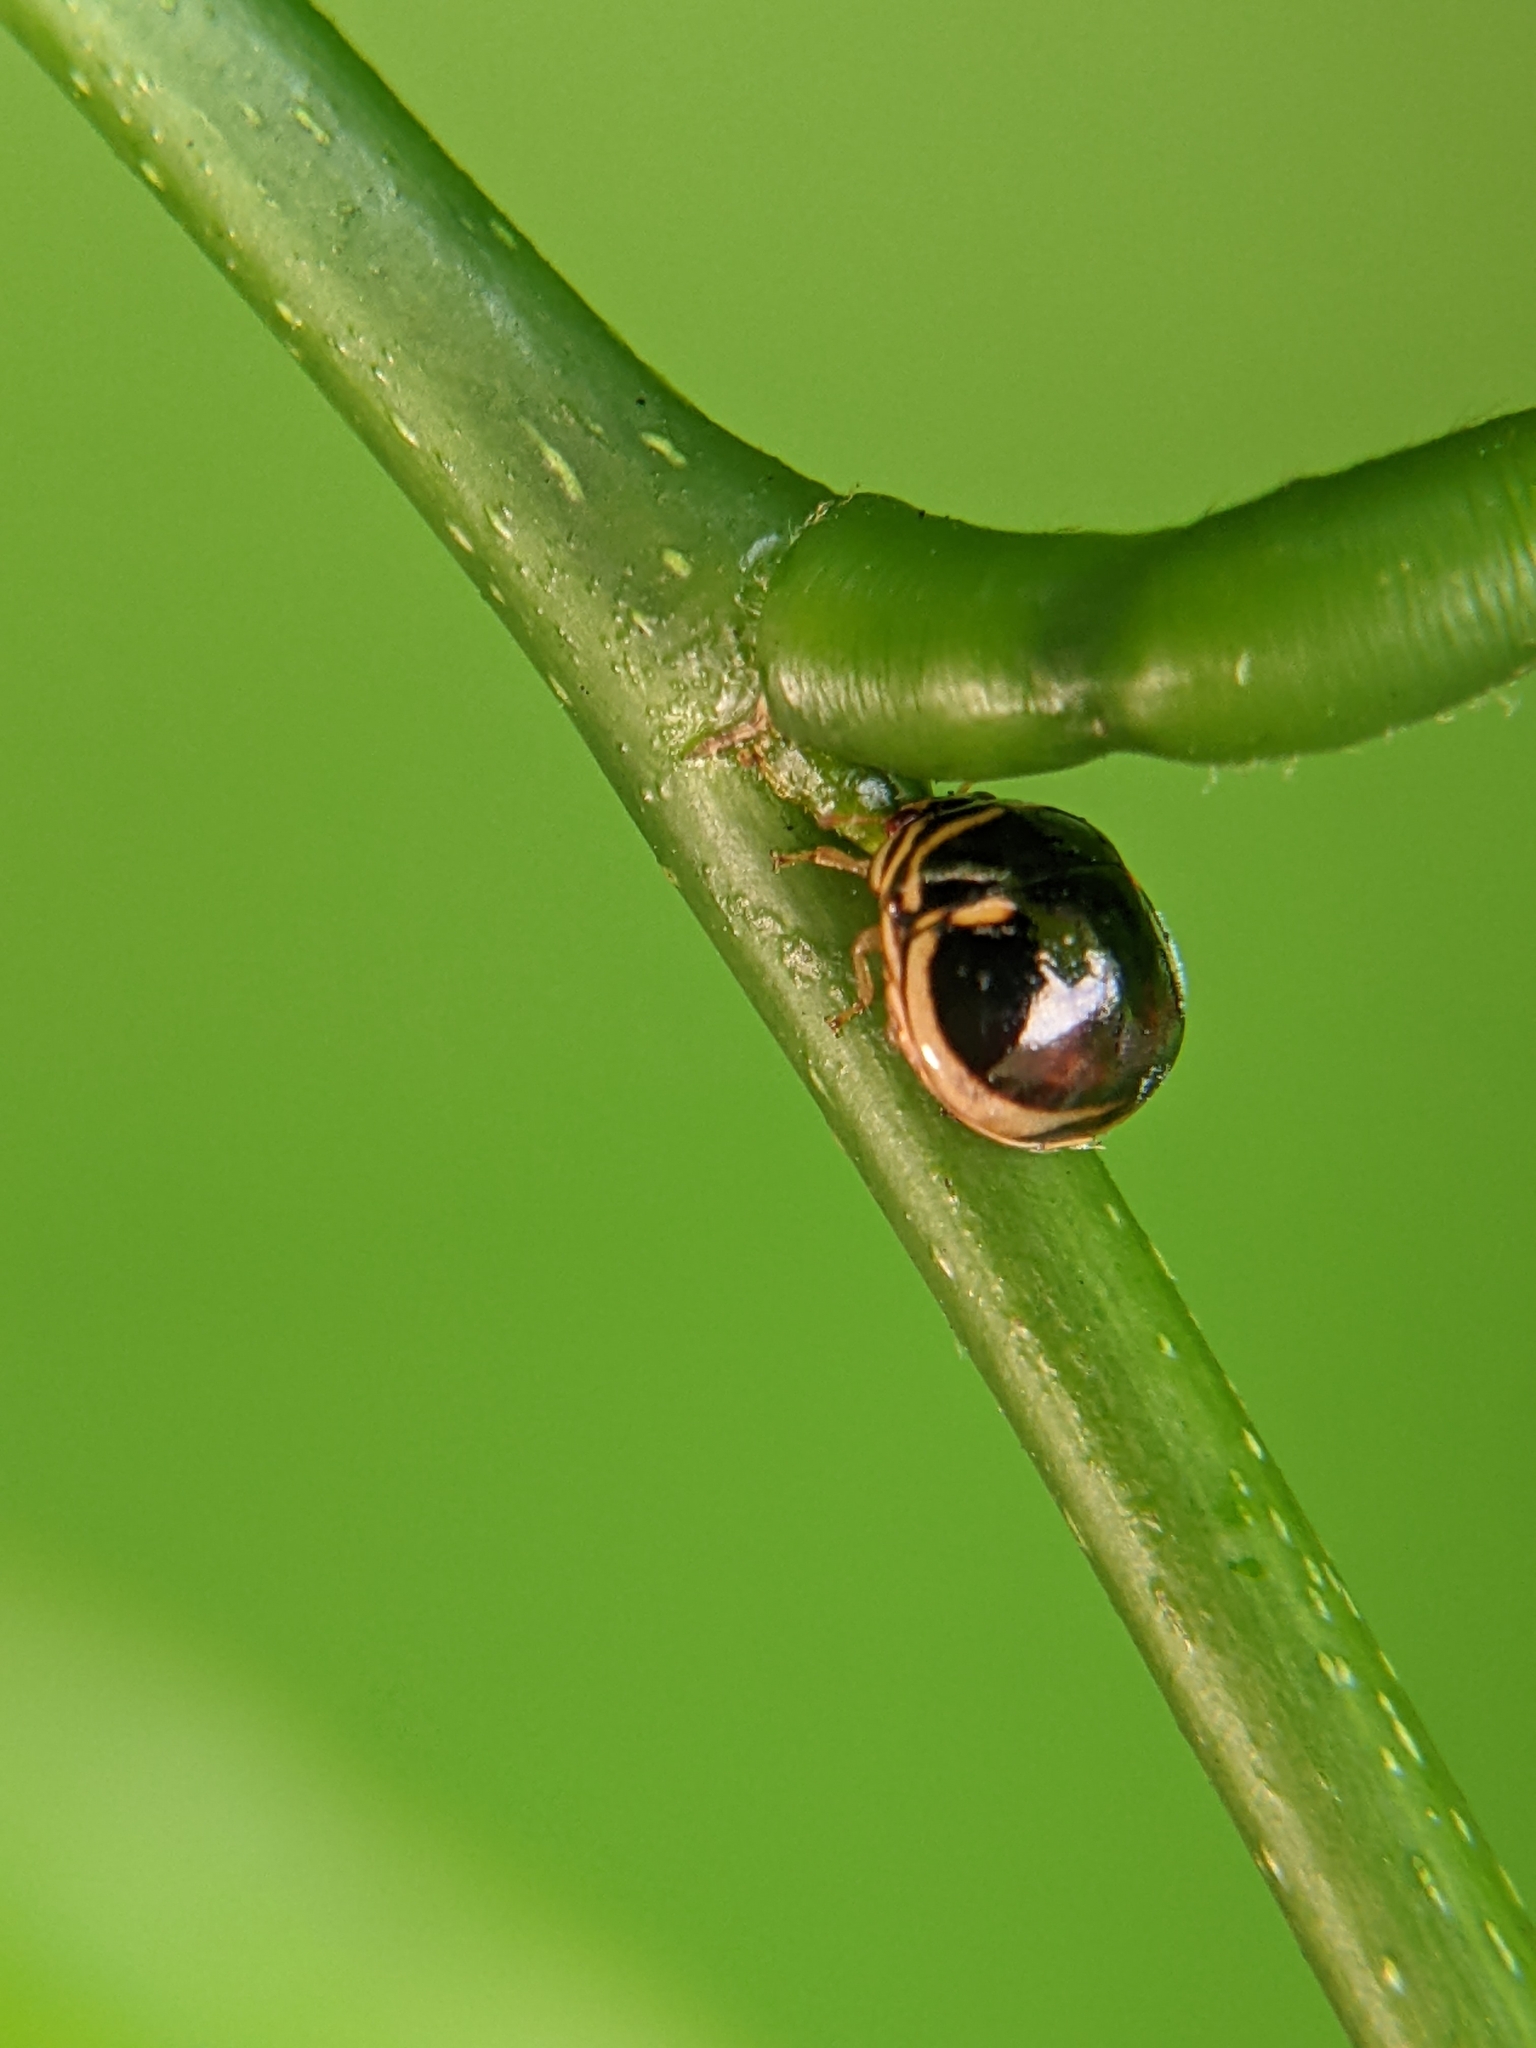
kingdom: Animalia
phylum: Arthropoda
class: Insecta
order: Hemiptera
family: Plataspidae
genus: Coptosoma
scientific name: Coptosoma
